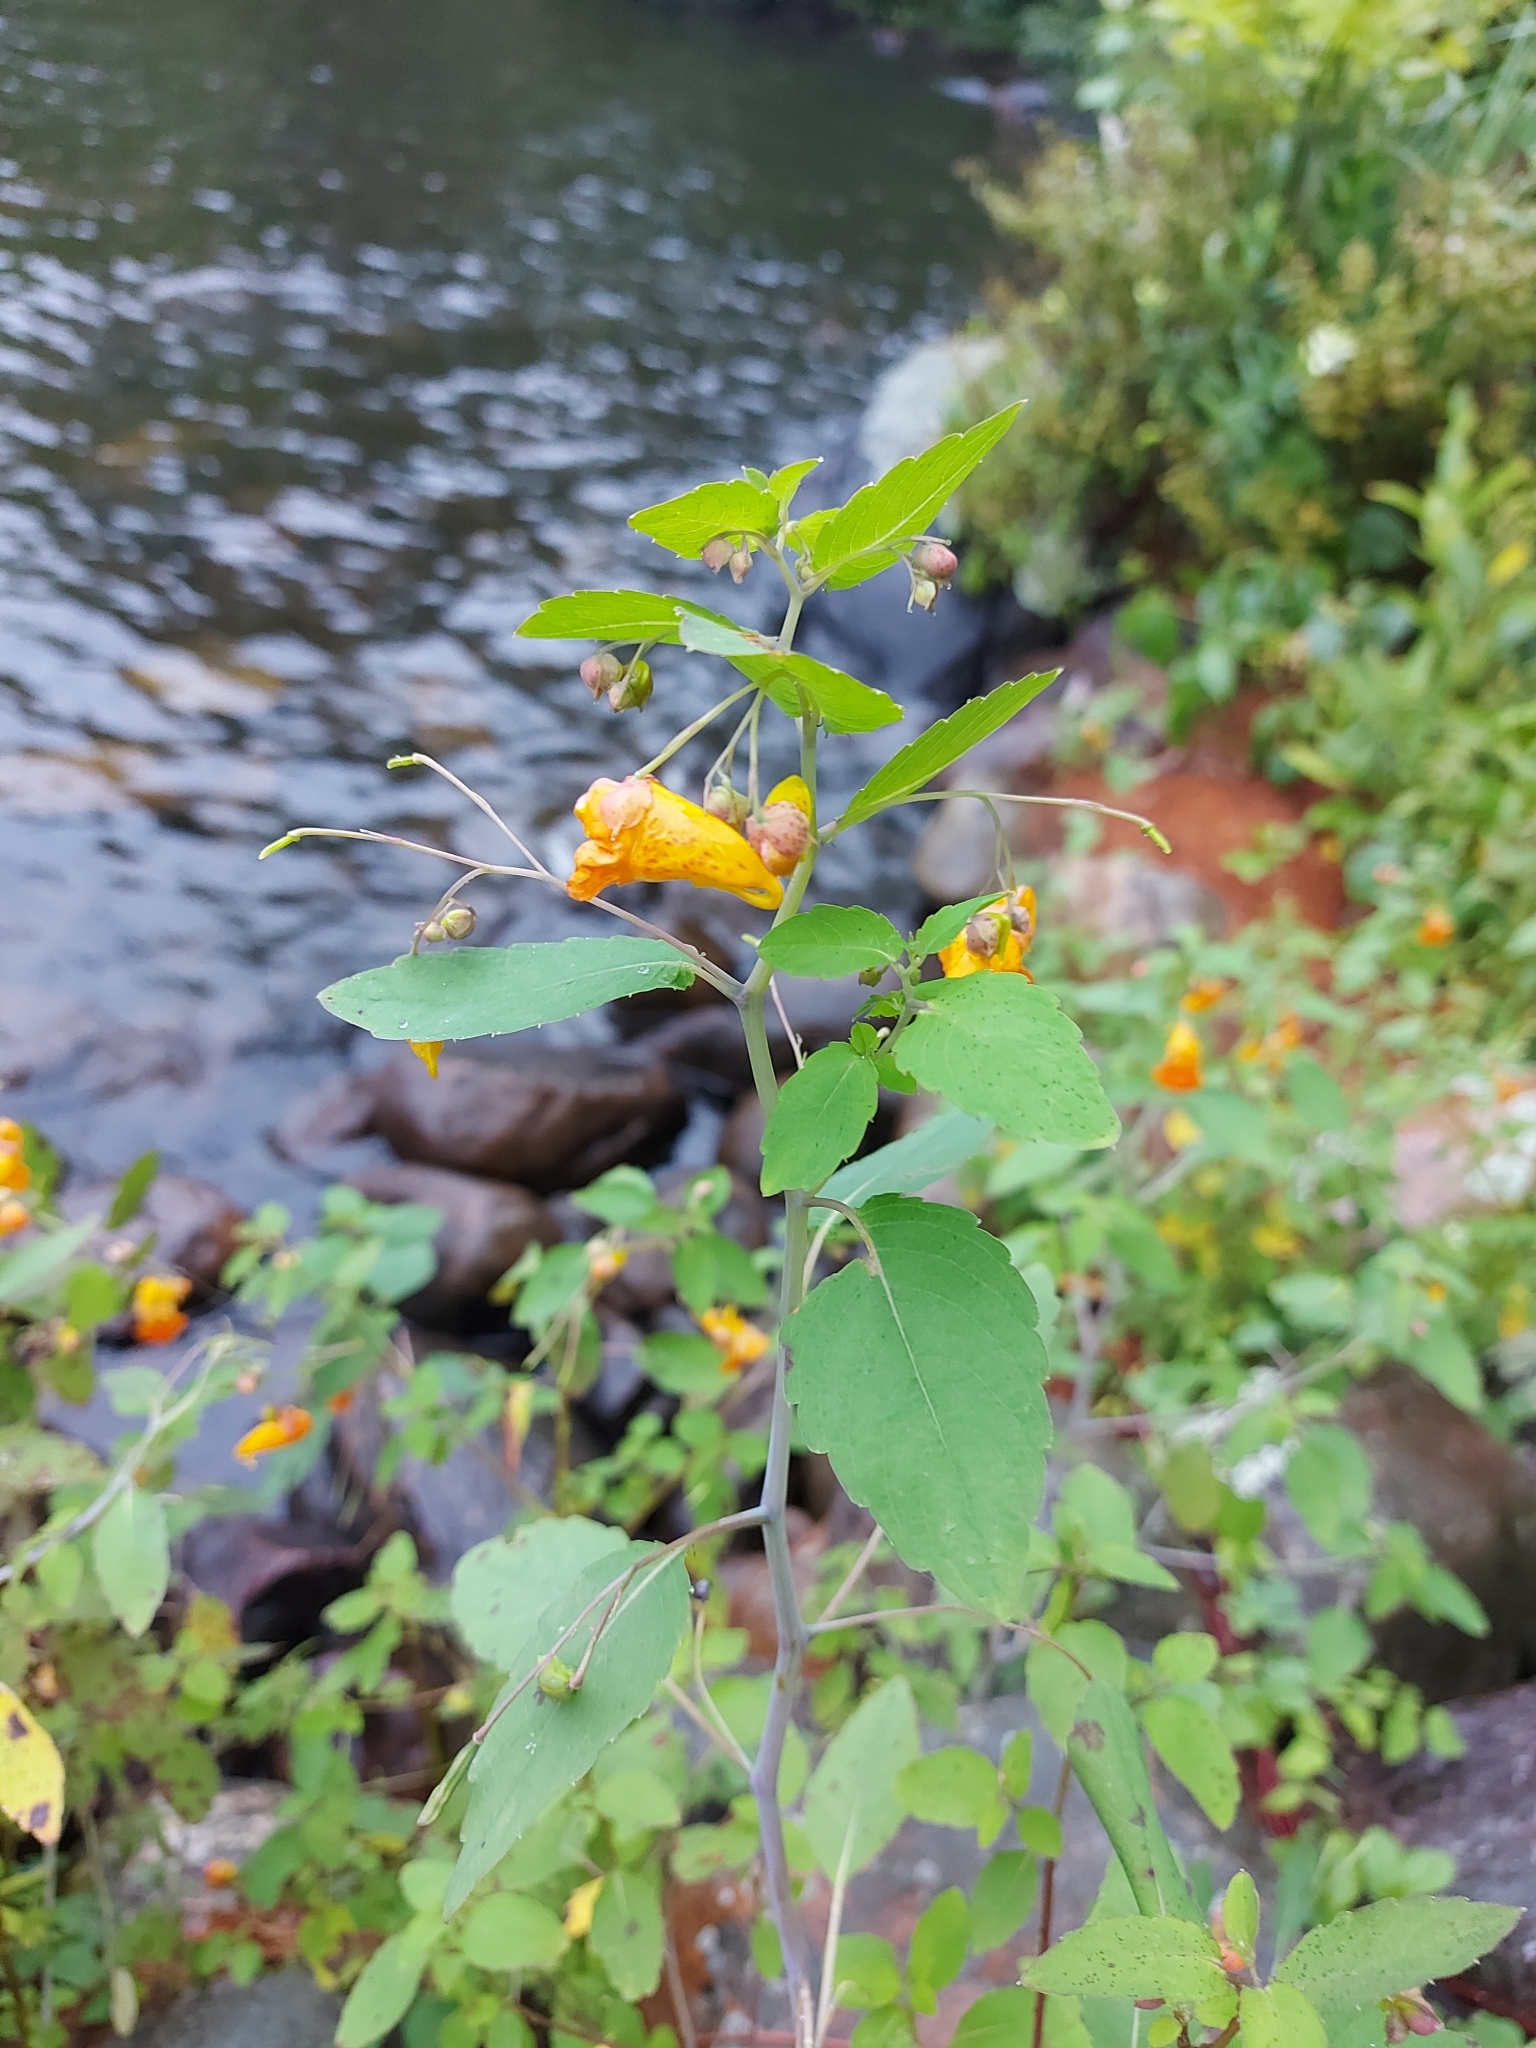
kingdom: Plantae
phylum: Tracheophyta
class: Magnoliopsida
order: Ericales
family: Balsaminaceae
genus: Impatiens
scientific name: Impatiens capensis
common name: Orange balsam
